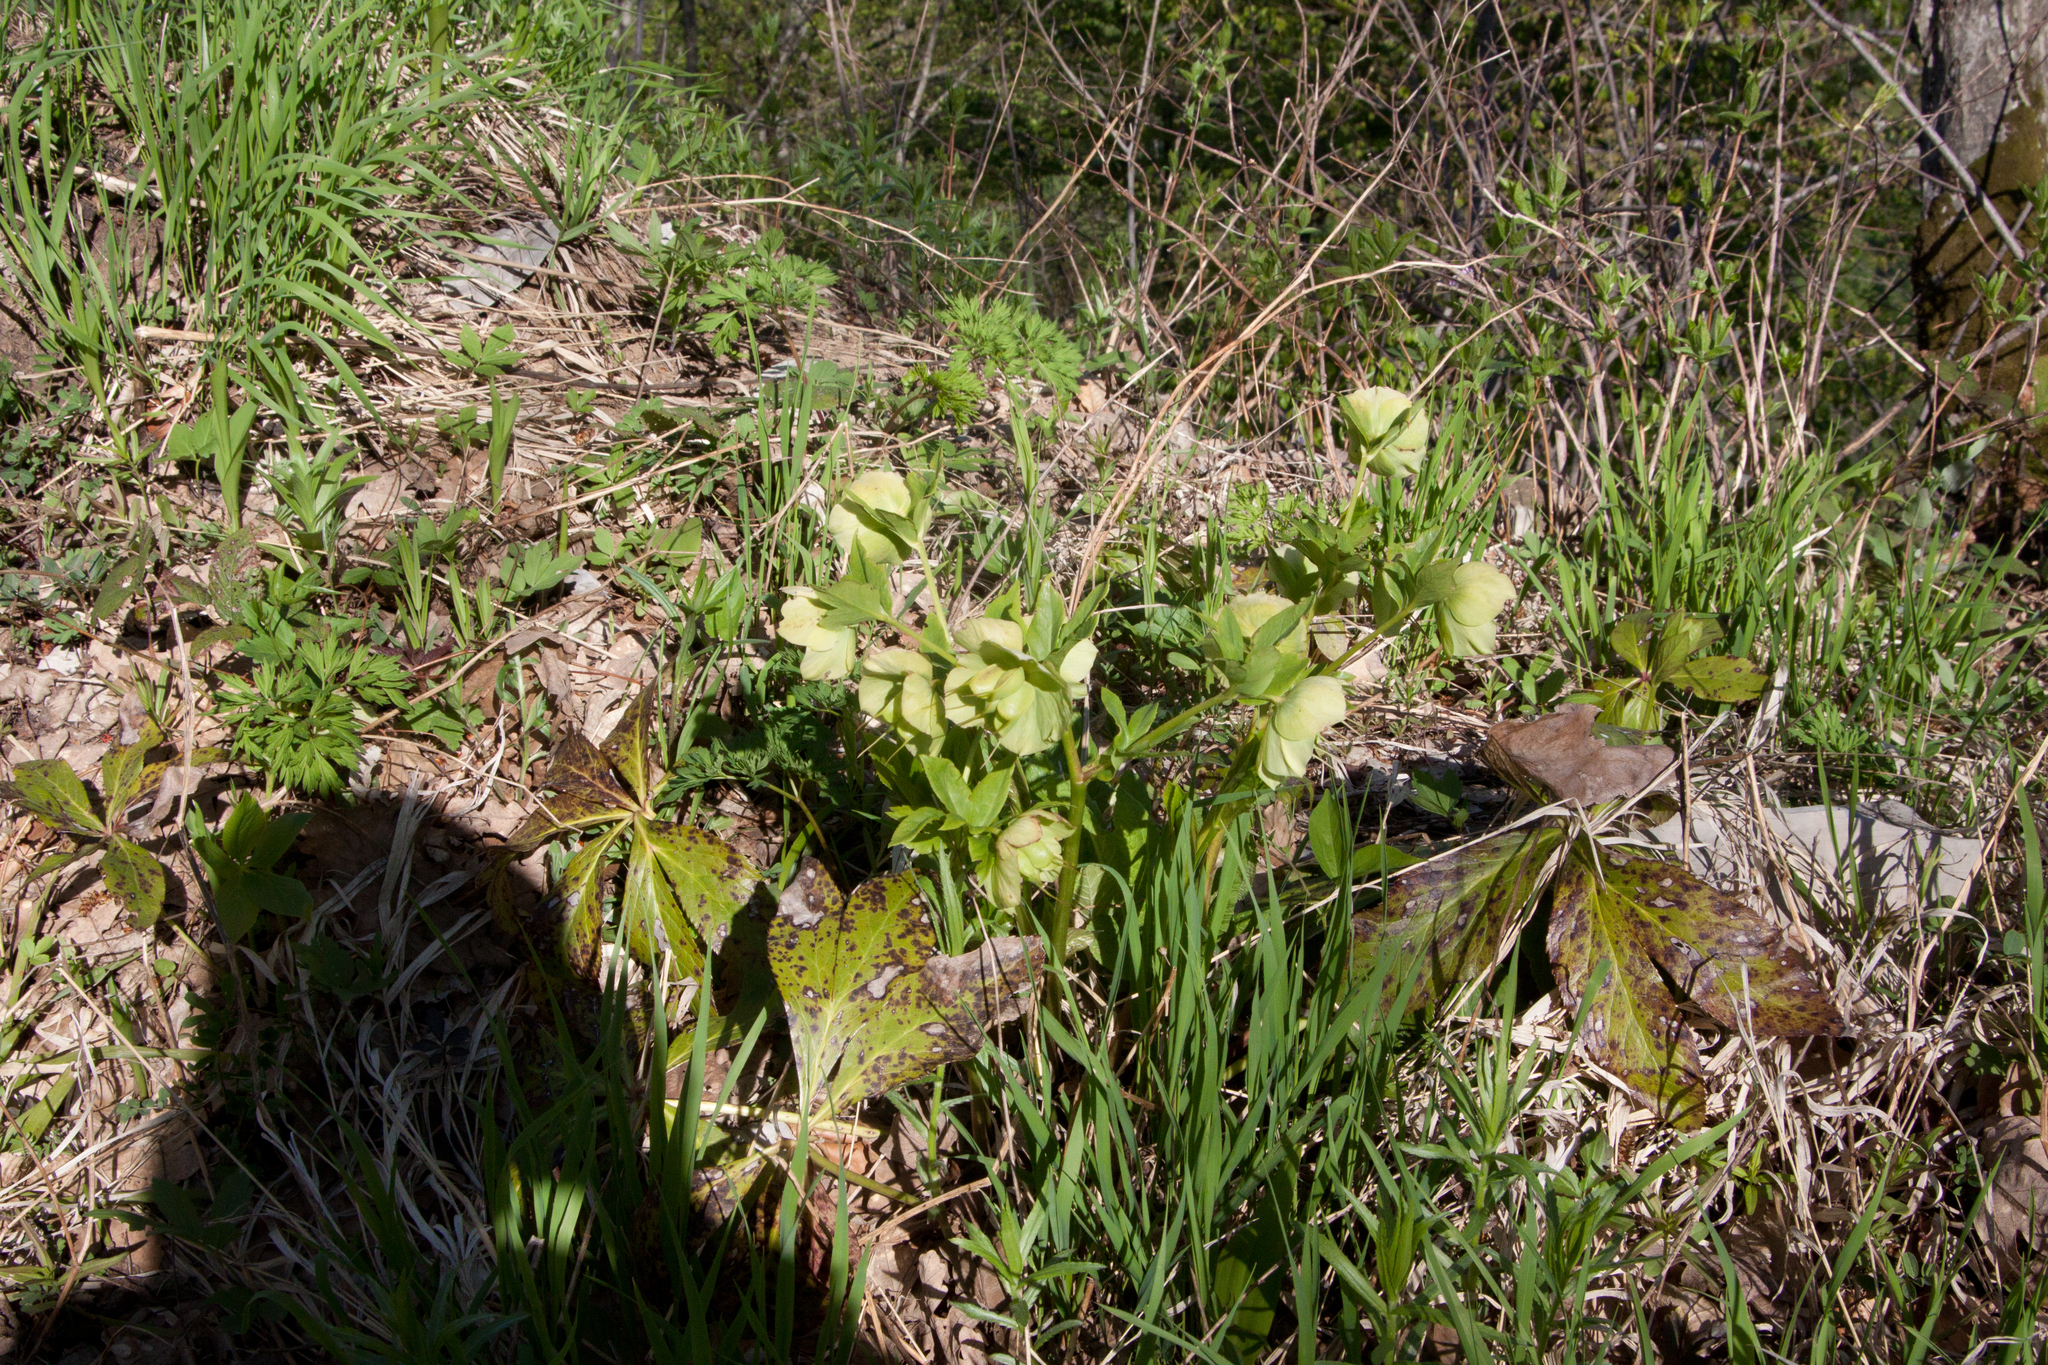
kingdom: Plantae
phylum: Tracheophyta
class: Magnoliopsida
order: Ranunculales
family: Ranunculaceae
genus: Helleborus
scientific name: Helleborus orientalis
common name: Lenten-rose
